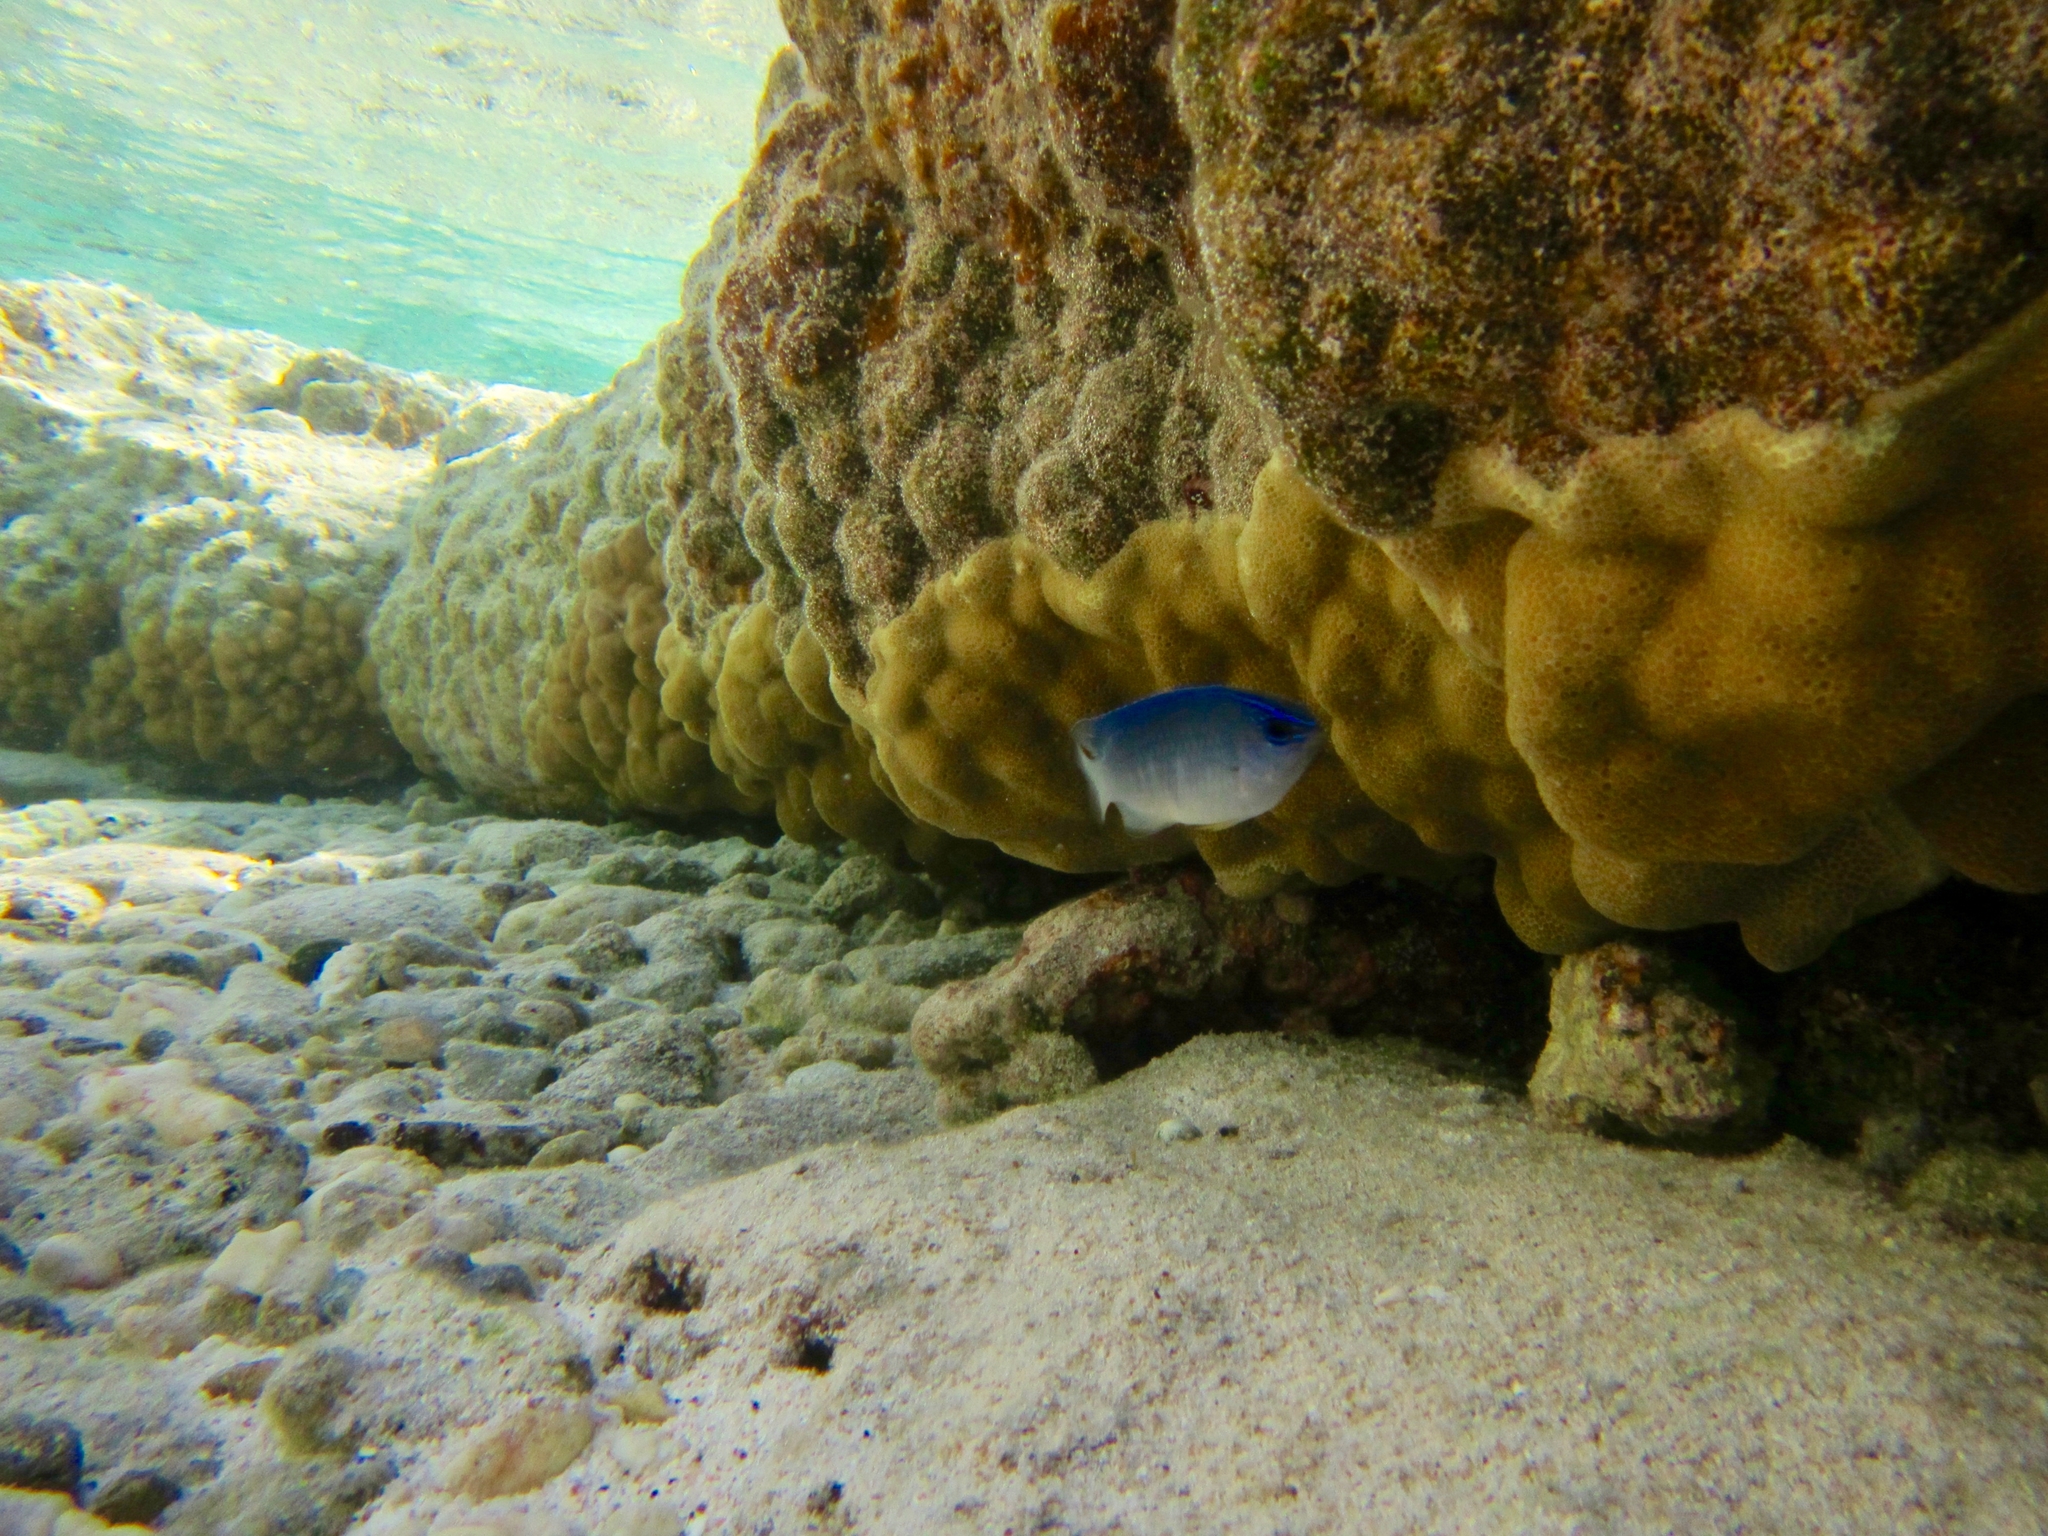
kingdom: Animalia
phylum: Chordata
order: Perciformes
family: Pomacentridae
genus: Chrysiptera
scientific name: Chrysiptera glauca
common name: Grey demoiselle
